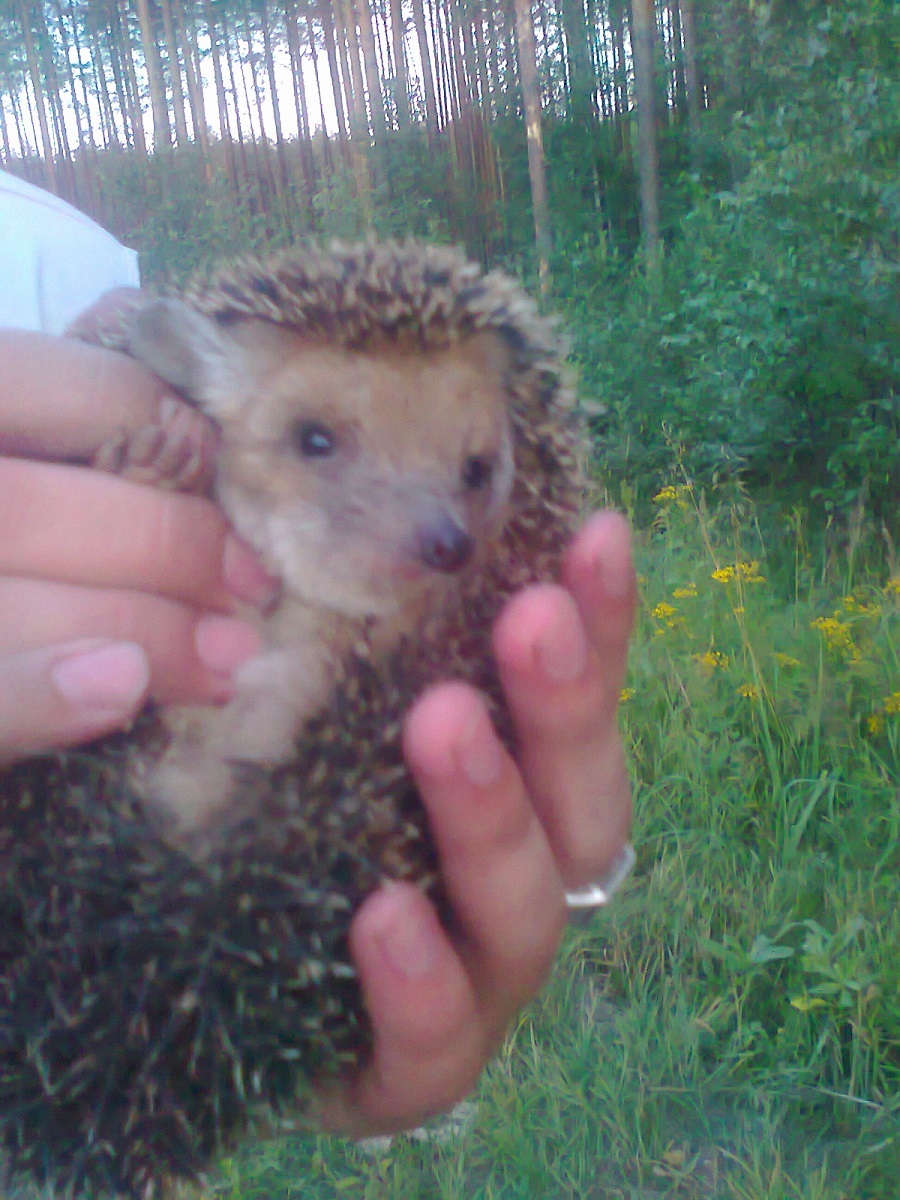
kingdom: Animalia
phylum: Chordata
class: Mammalia
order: Erinaceomorpha
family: Erinaceidae
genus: Hemiechinus
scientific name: Hemiechinus auritus
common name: Long-eared hedgehog
